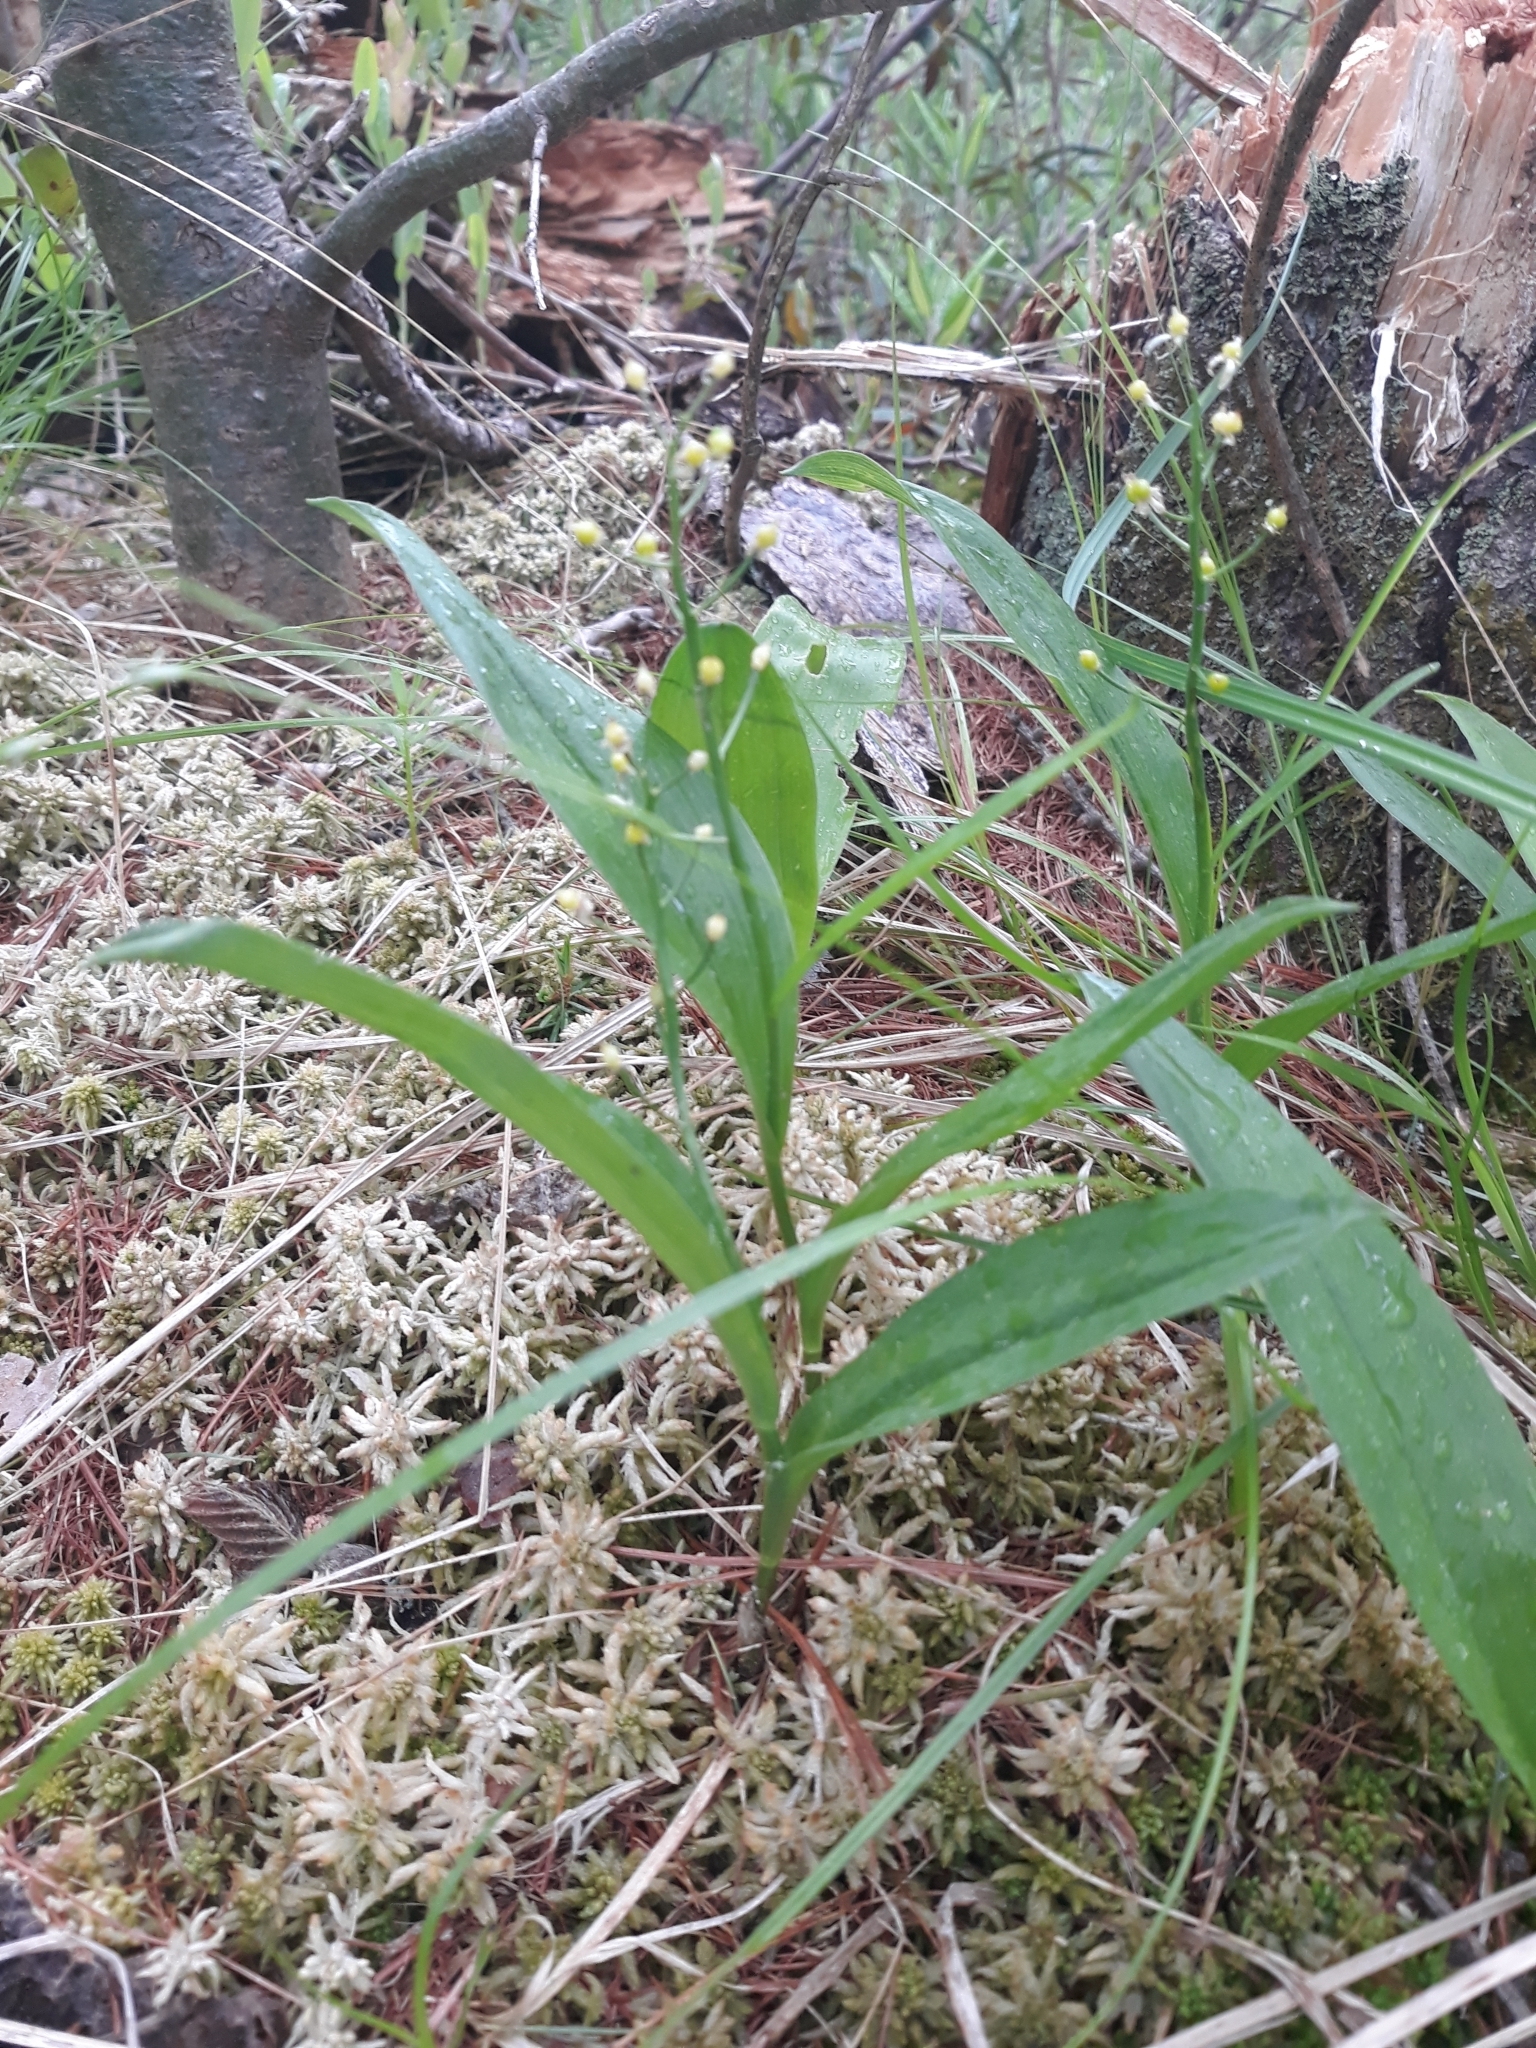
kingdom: Plantae
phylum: Tracheophyta
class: Liliopsida
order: Asparagales
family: Asparagaceae
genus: Maianthemum
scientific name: Maianthemum trifolium
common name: Swamp false solomon's seal
